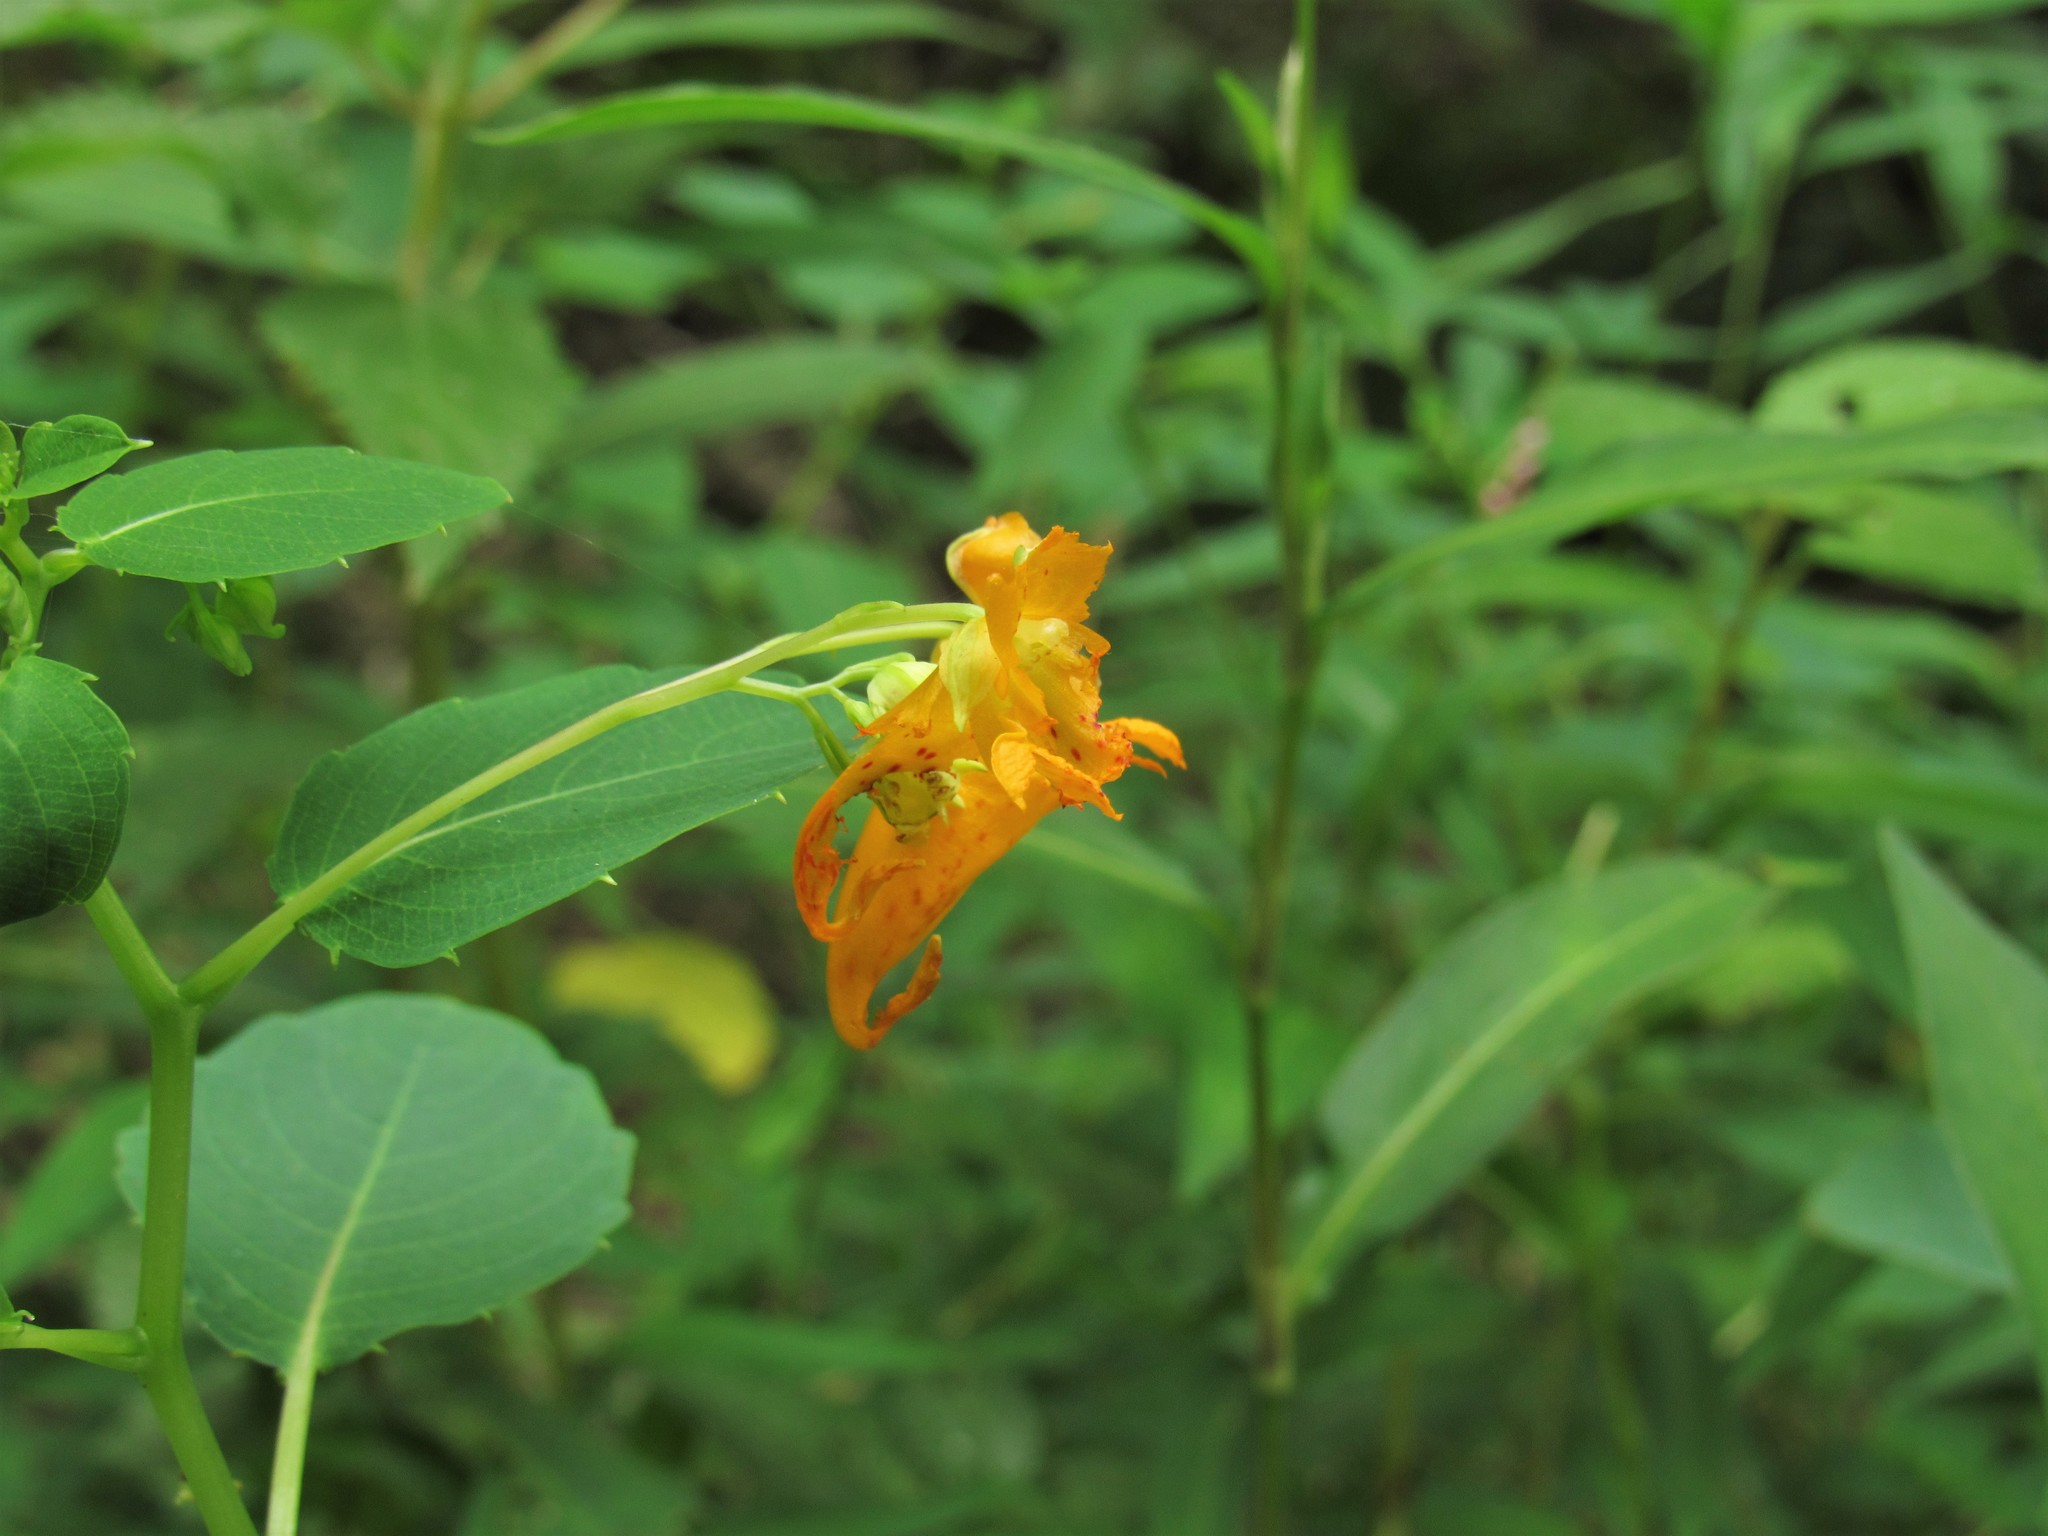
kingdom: Plantae
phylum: Tracheophyta
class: Magnoliopsida
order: Ericales
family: Balsaminaceae
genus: Impatiens
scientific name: Impatiens capensis
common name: Orange balsam
